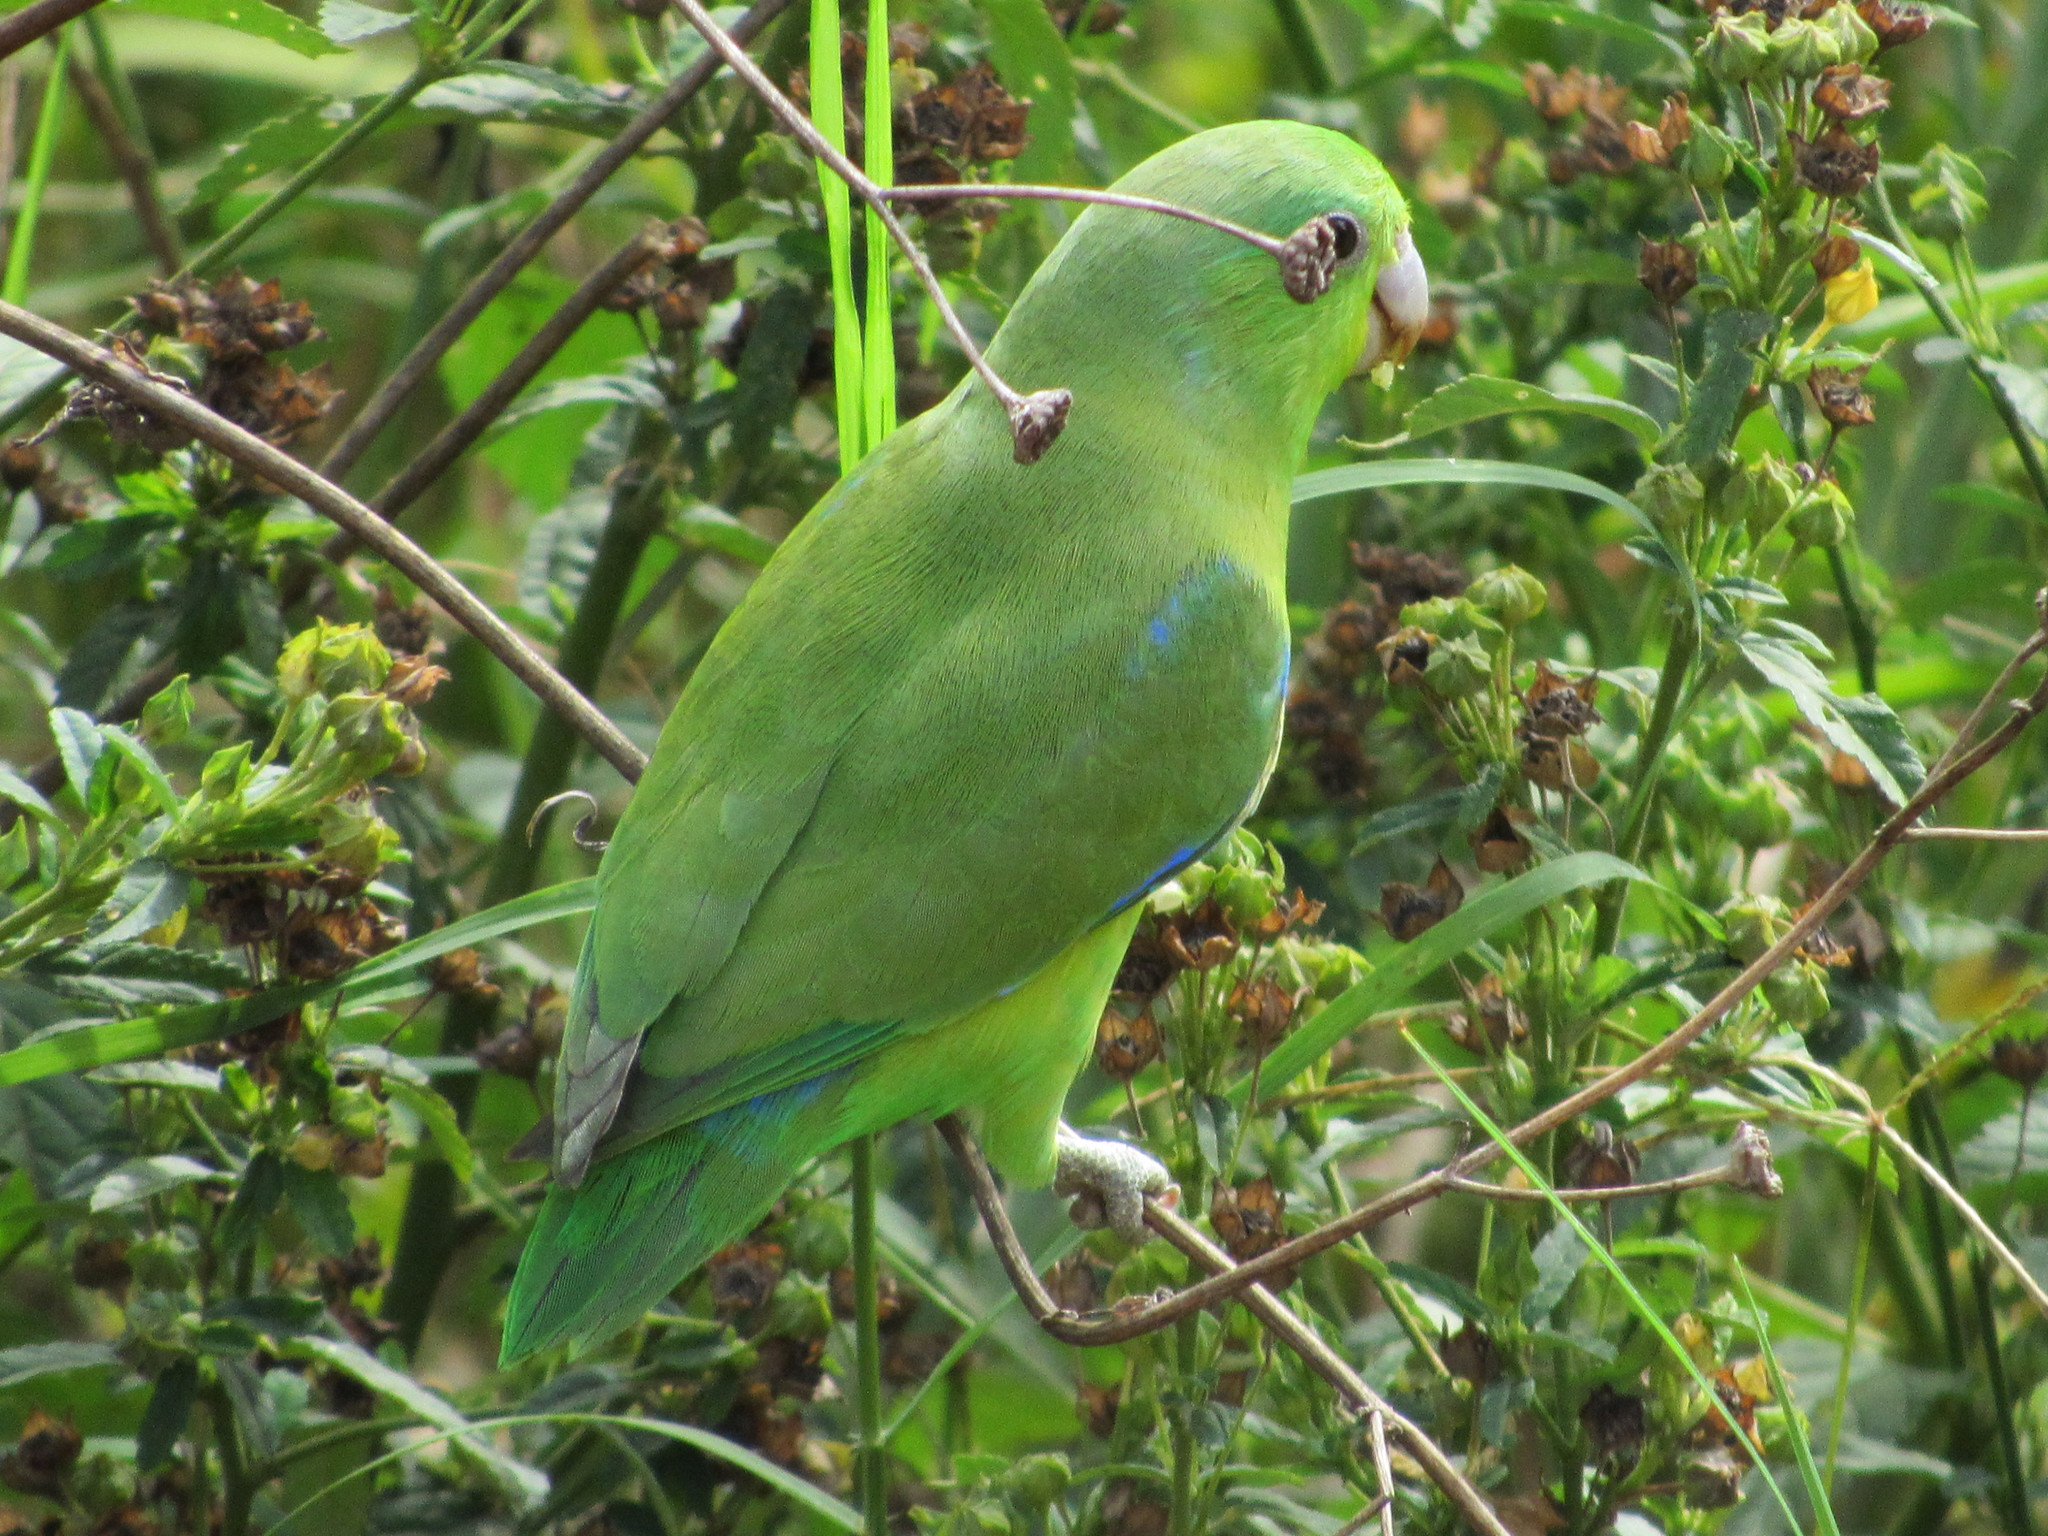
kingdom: Animalia
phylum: Chordata
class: Aves
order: Psittaciformes
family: Psittacidae
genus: Forpus
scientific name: Forpus xanthopterygius
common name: Blue-winged parrotlet
